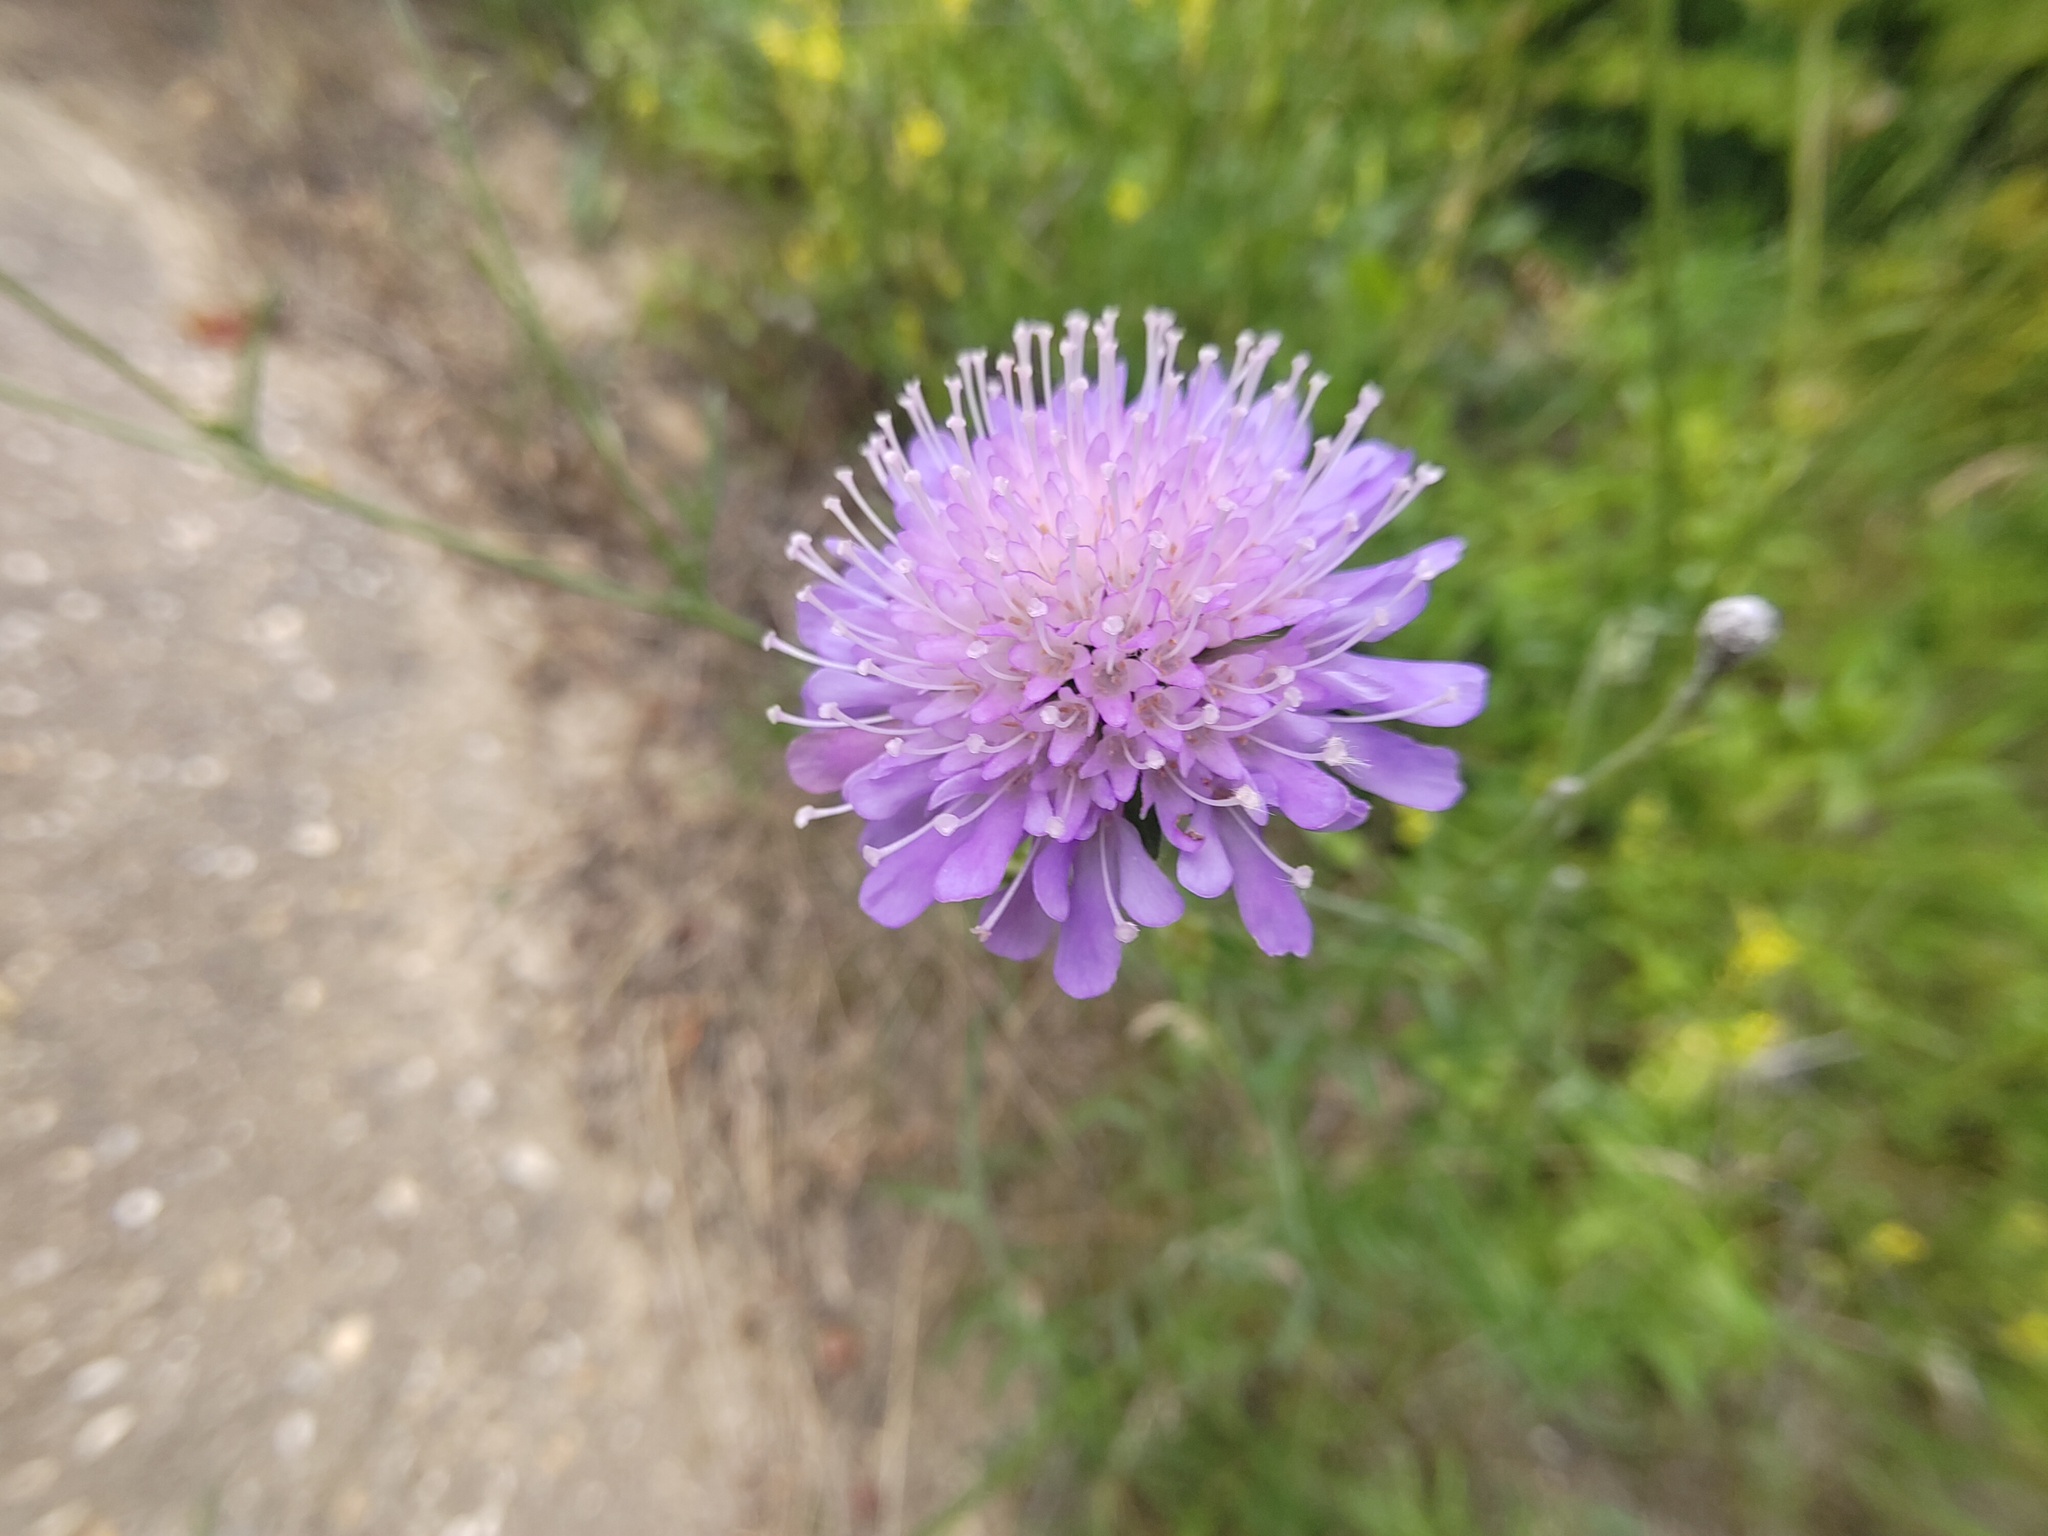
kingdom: Plantae
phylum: Tracheophyta
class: Magnoliopsida
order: Dipsacales
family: Caprifoliaceae
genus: Knautia
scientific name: Knautia arvensis
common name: Field scabiosa
